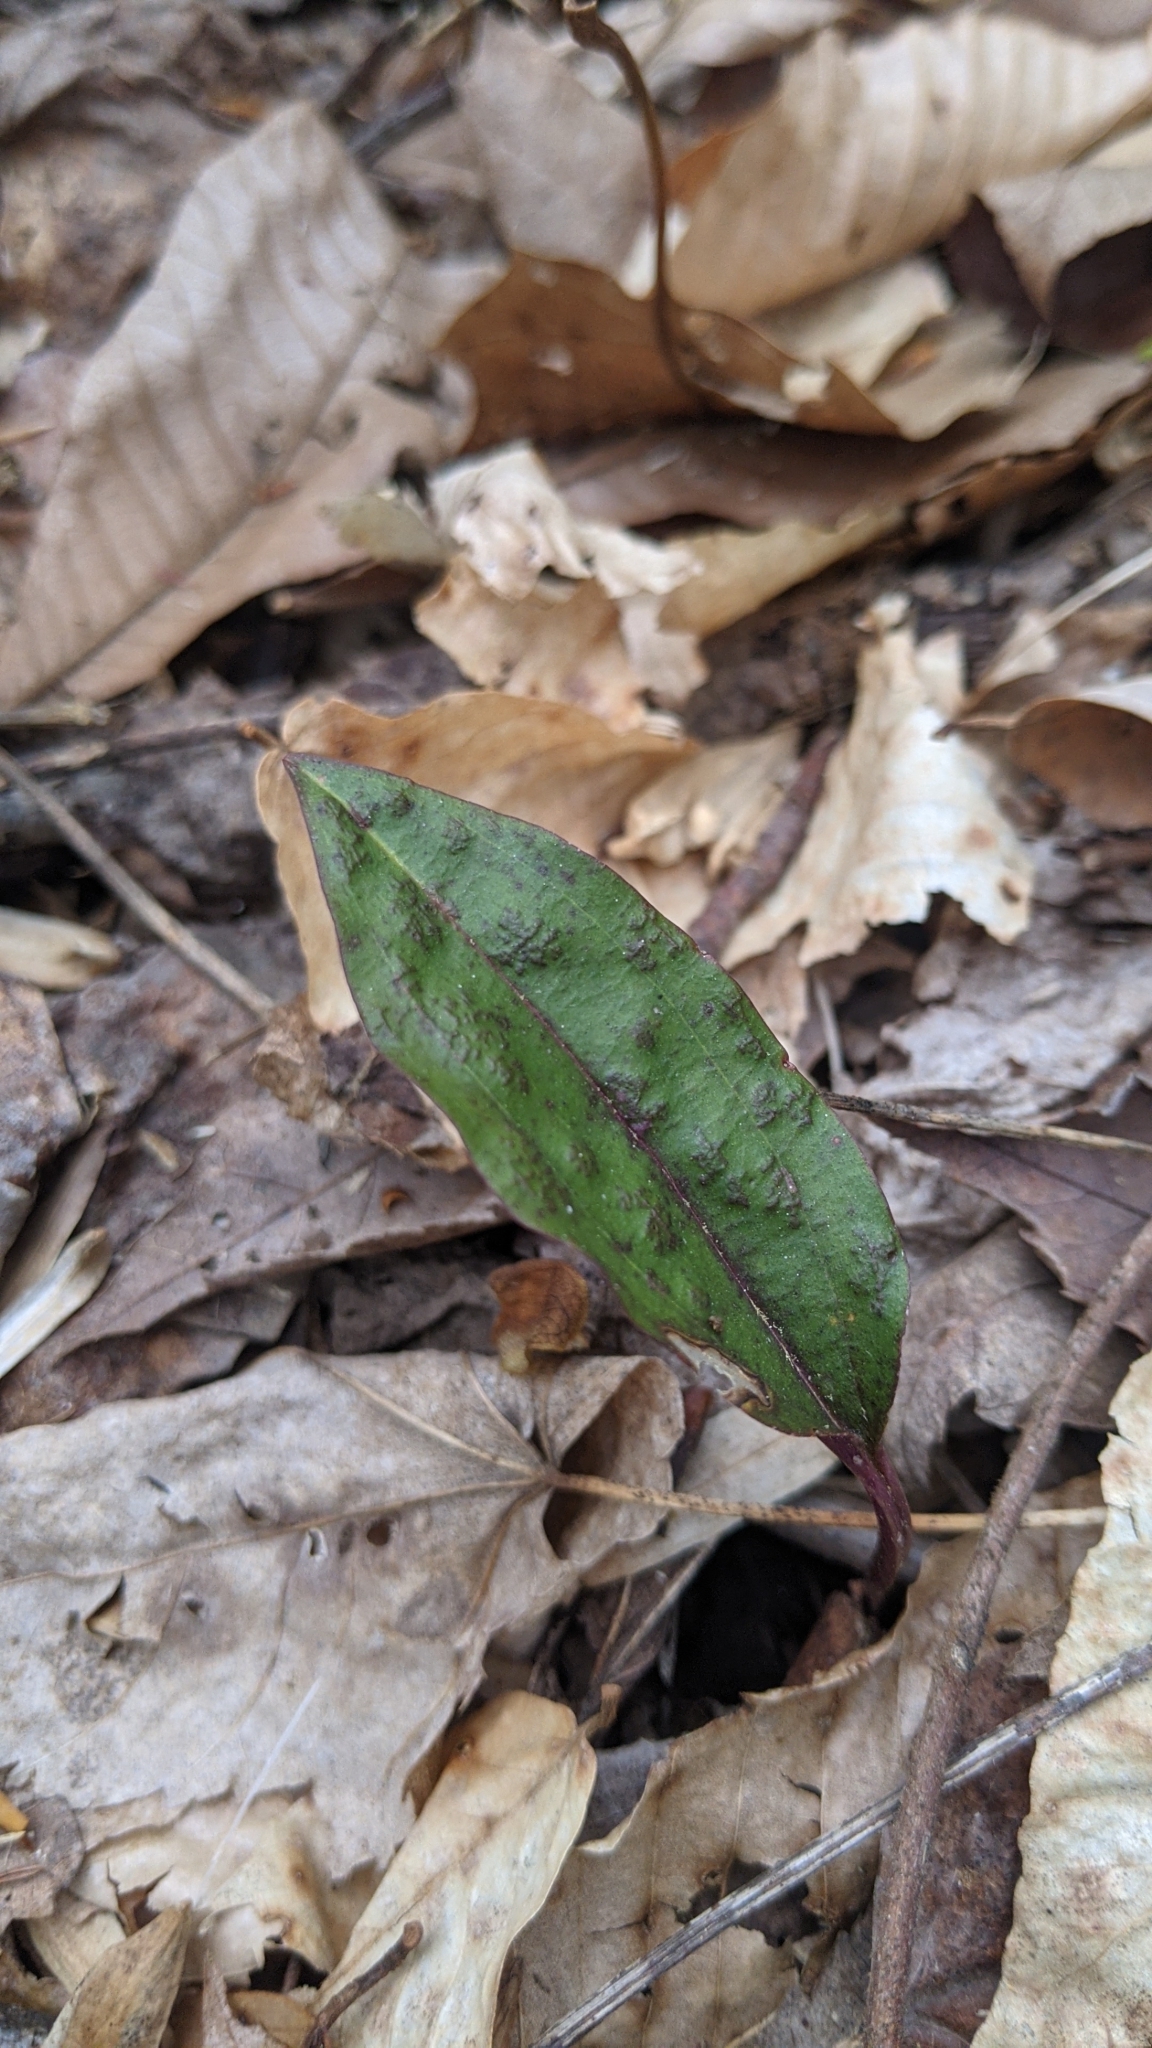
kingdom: Plantae
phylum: Tracheophyta
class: Liliopsida
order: Asparagales
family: Orchidaceae
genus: Tipularia
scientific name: Tipularia discolor
